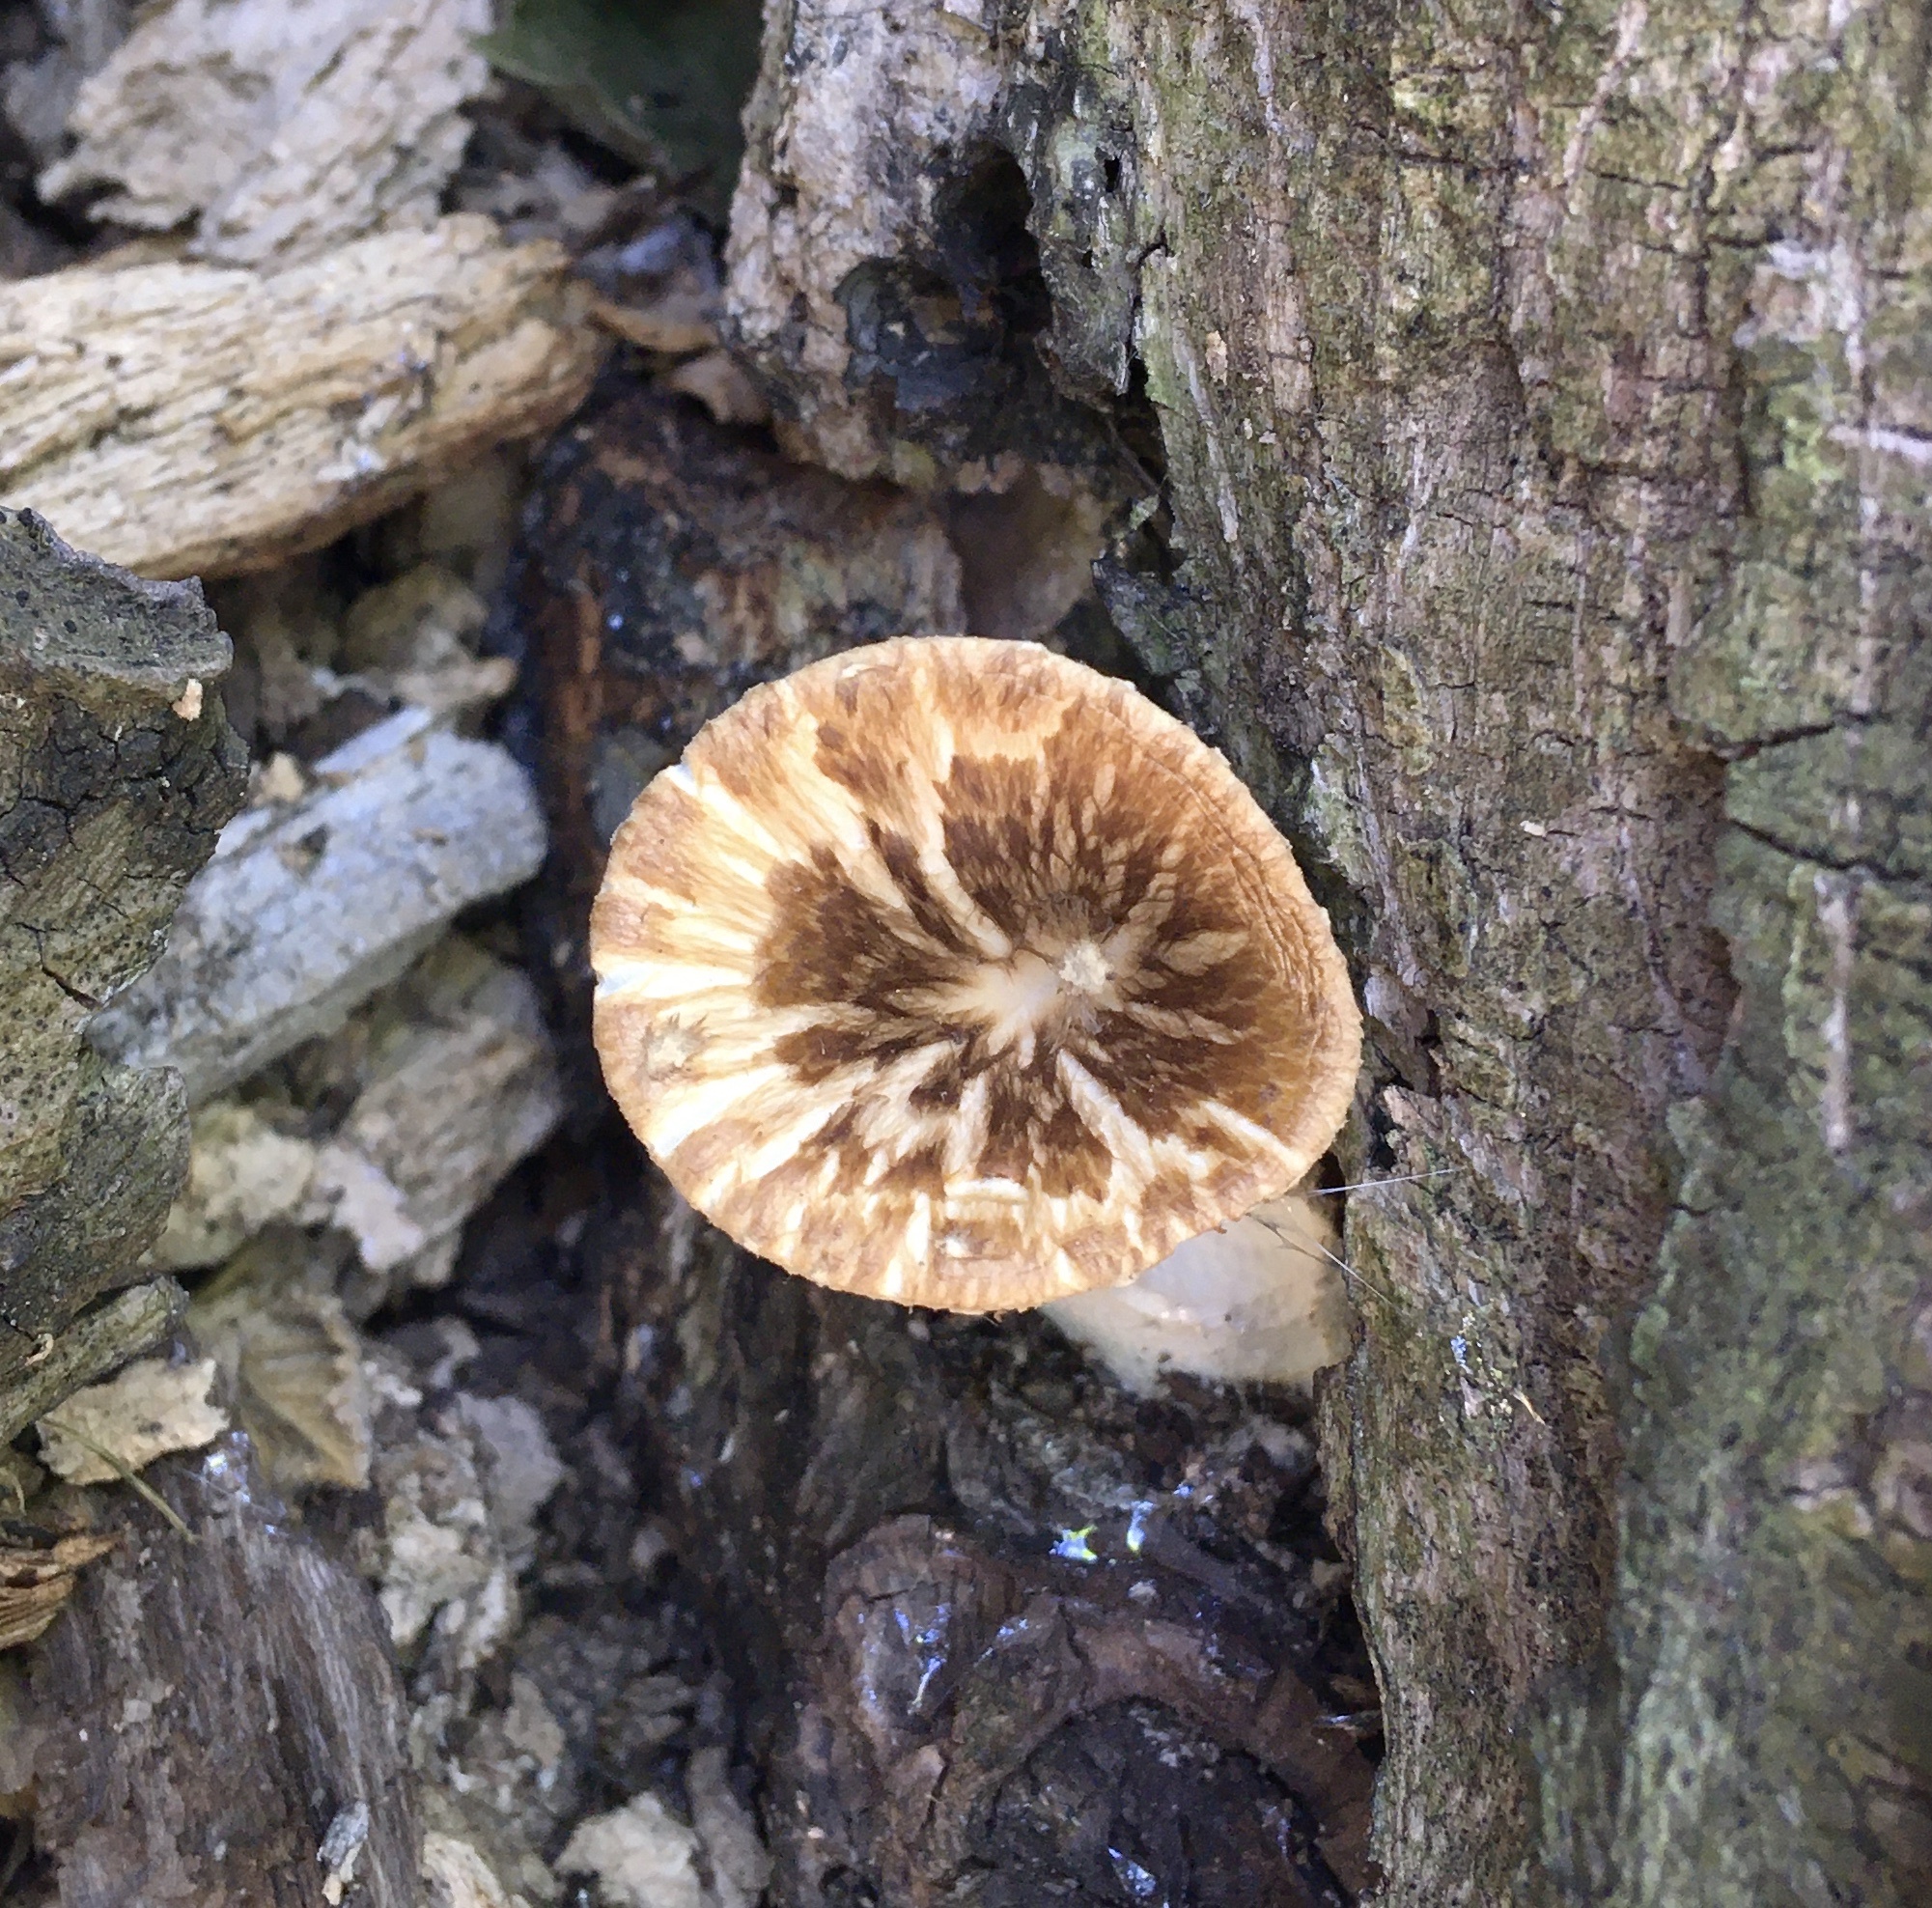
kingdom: Fungi
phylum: Basidiomycota
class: Agaricomycetes
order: Polyporales
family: Polyporaceae
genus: Cerioporus
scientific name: Cerioporus squamosus
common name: Dryad's saddle
